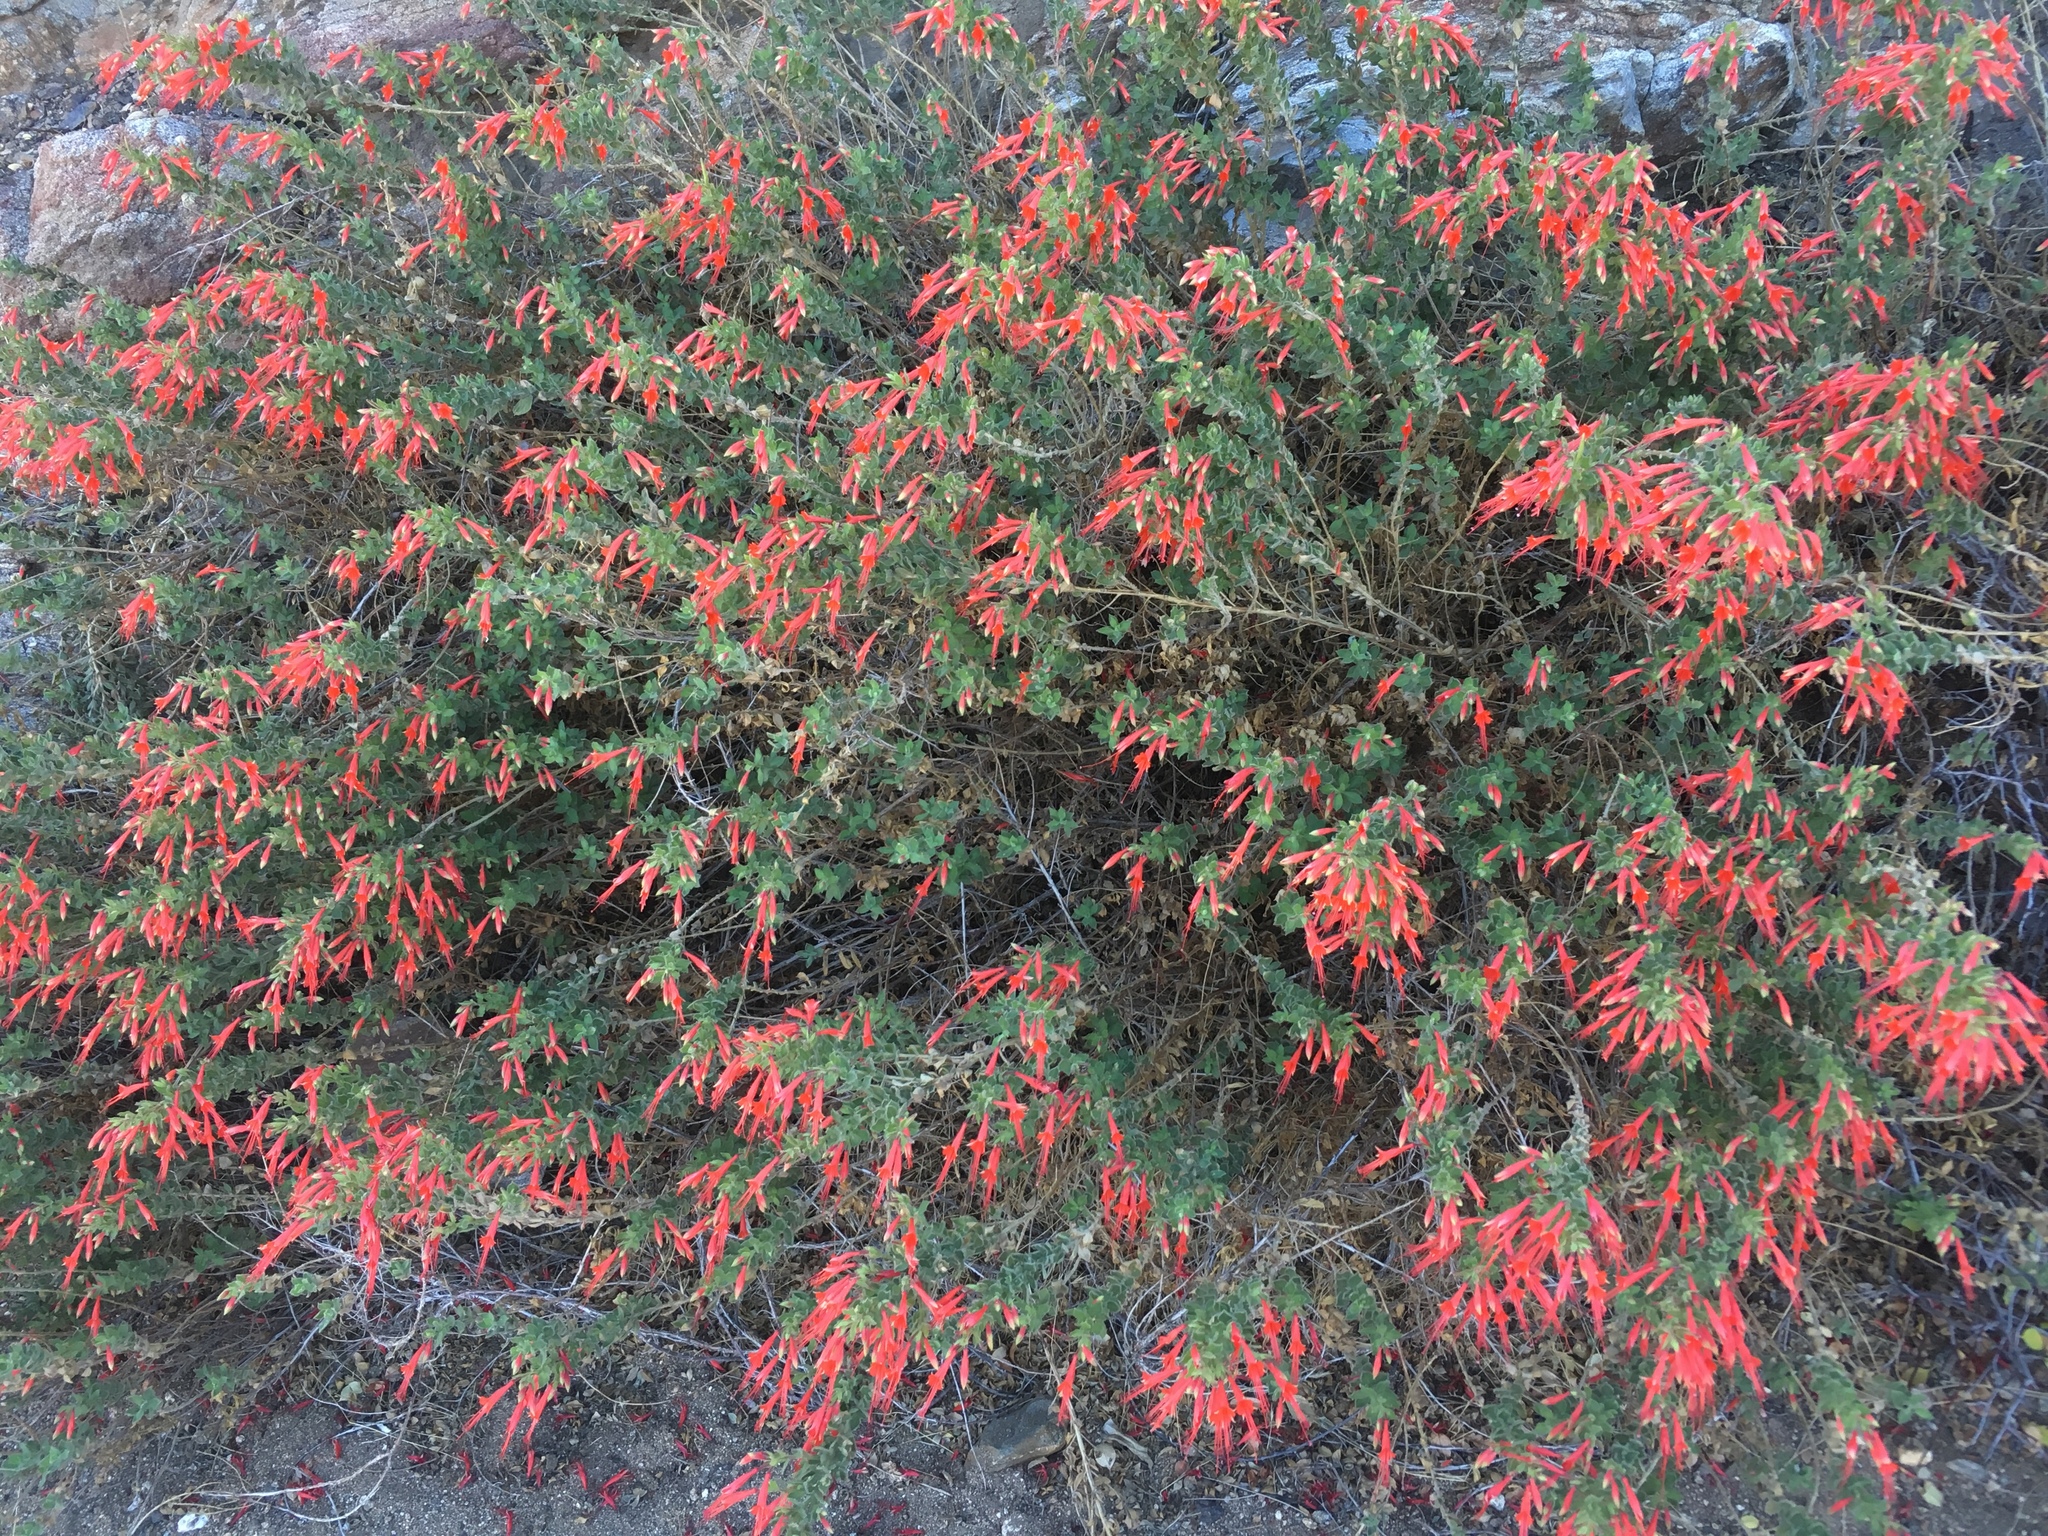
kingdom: Plantae
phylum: Tracheophyta
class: Magnoliopsida
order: Myrtales
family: Onagraceae
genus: Epilobium
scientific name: Epilobium canum
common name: California-fuchsia
